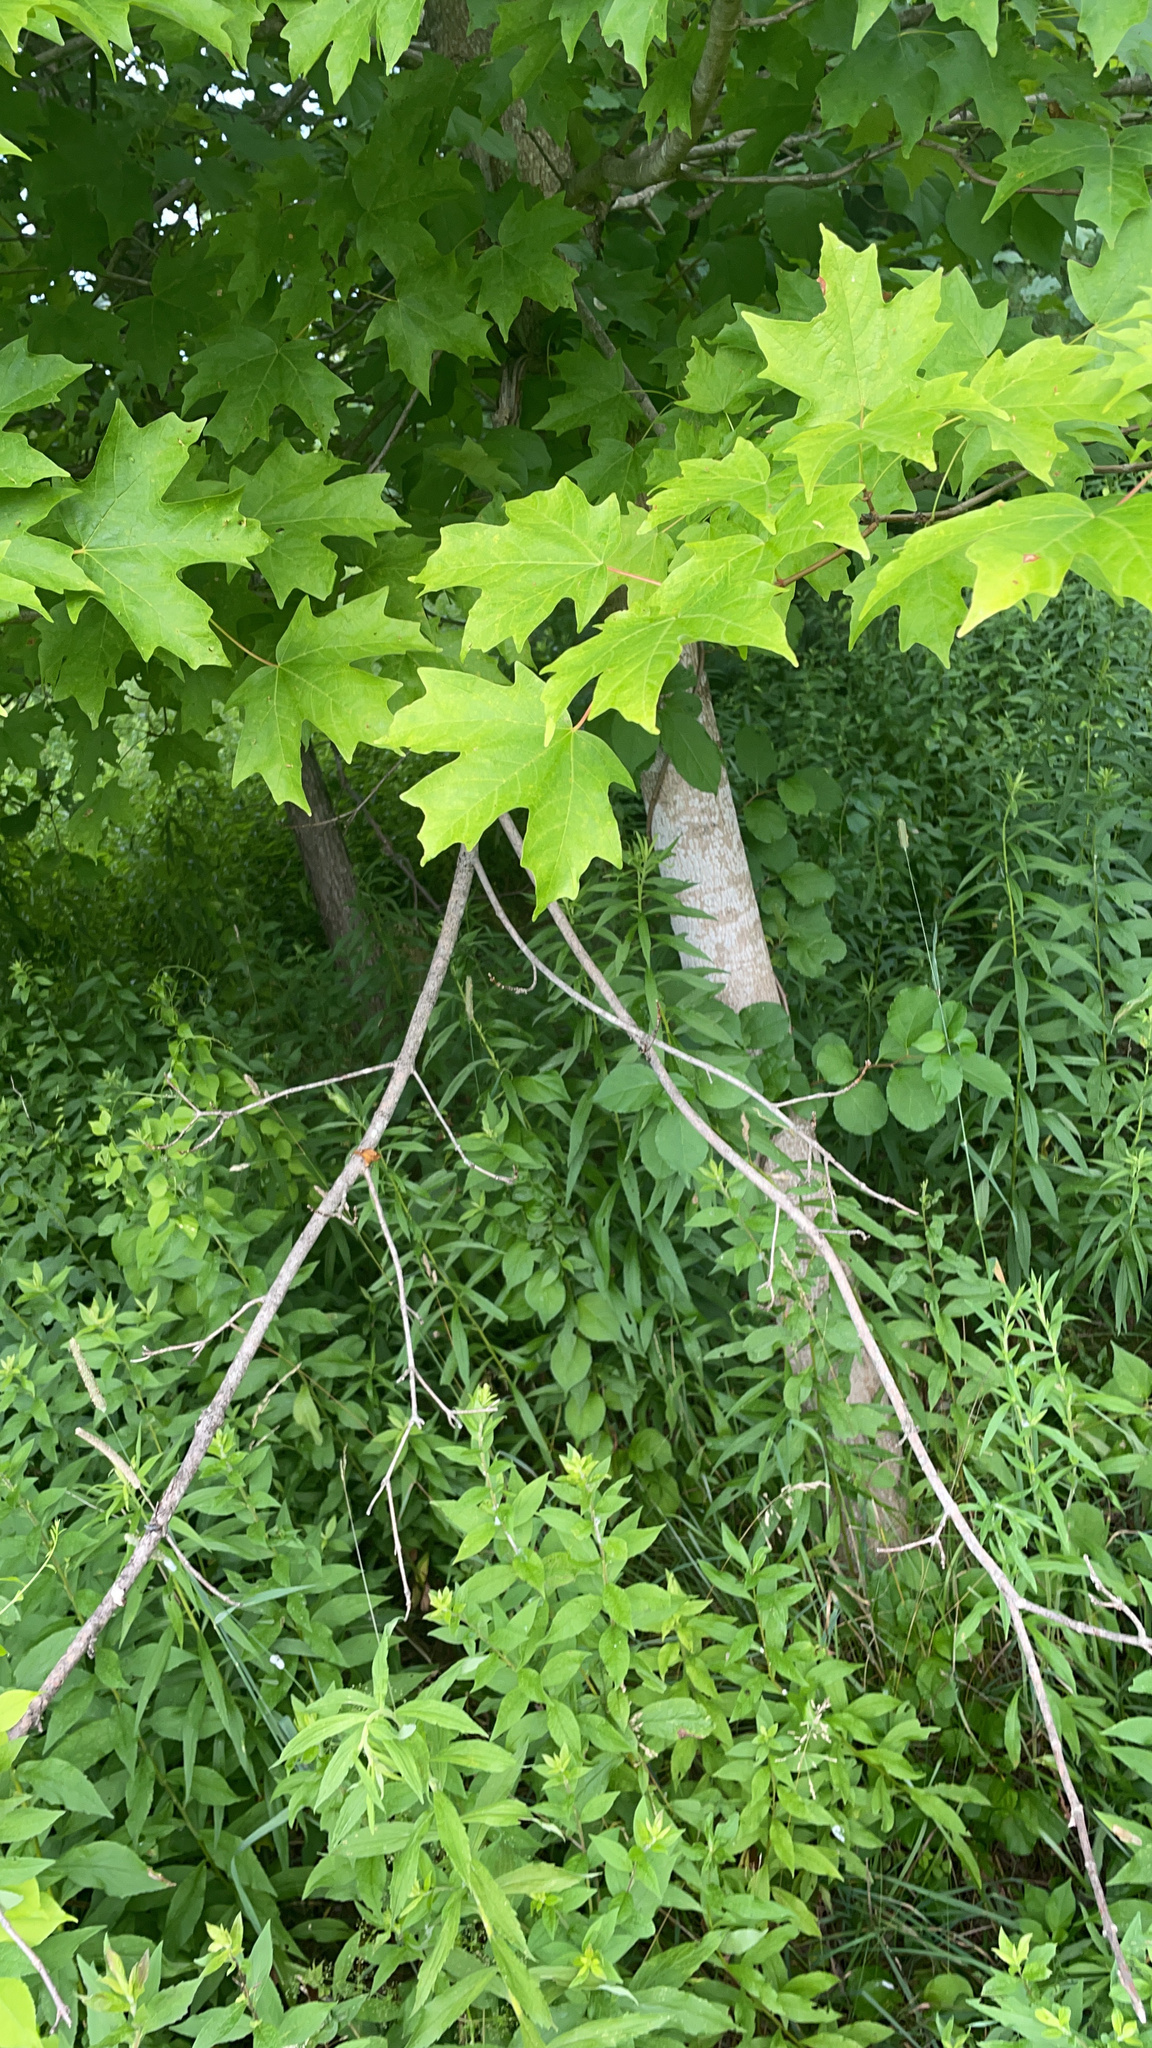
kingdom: Plantae
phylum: Tracheophyta
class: Magnoliopsida
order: Sapindales
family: Sapindaceae
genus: Acer
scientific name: Acer saccharum
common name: Sugar maple
